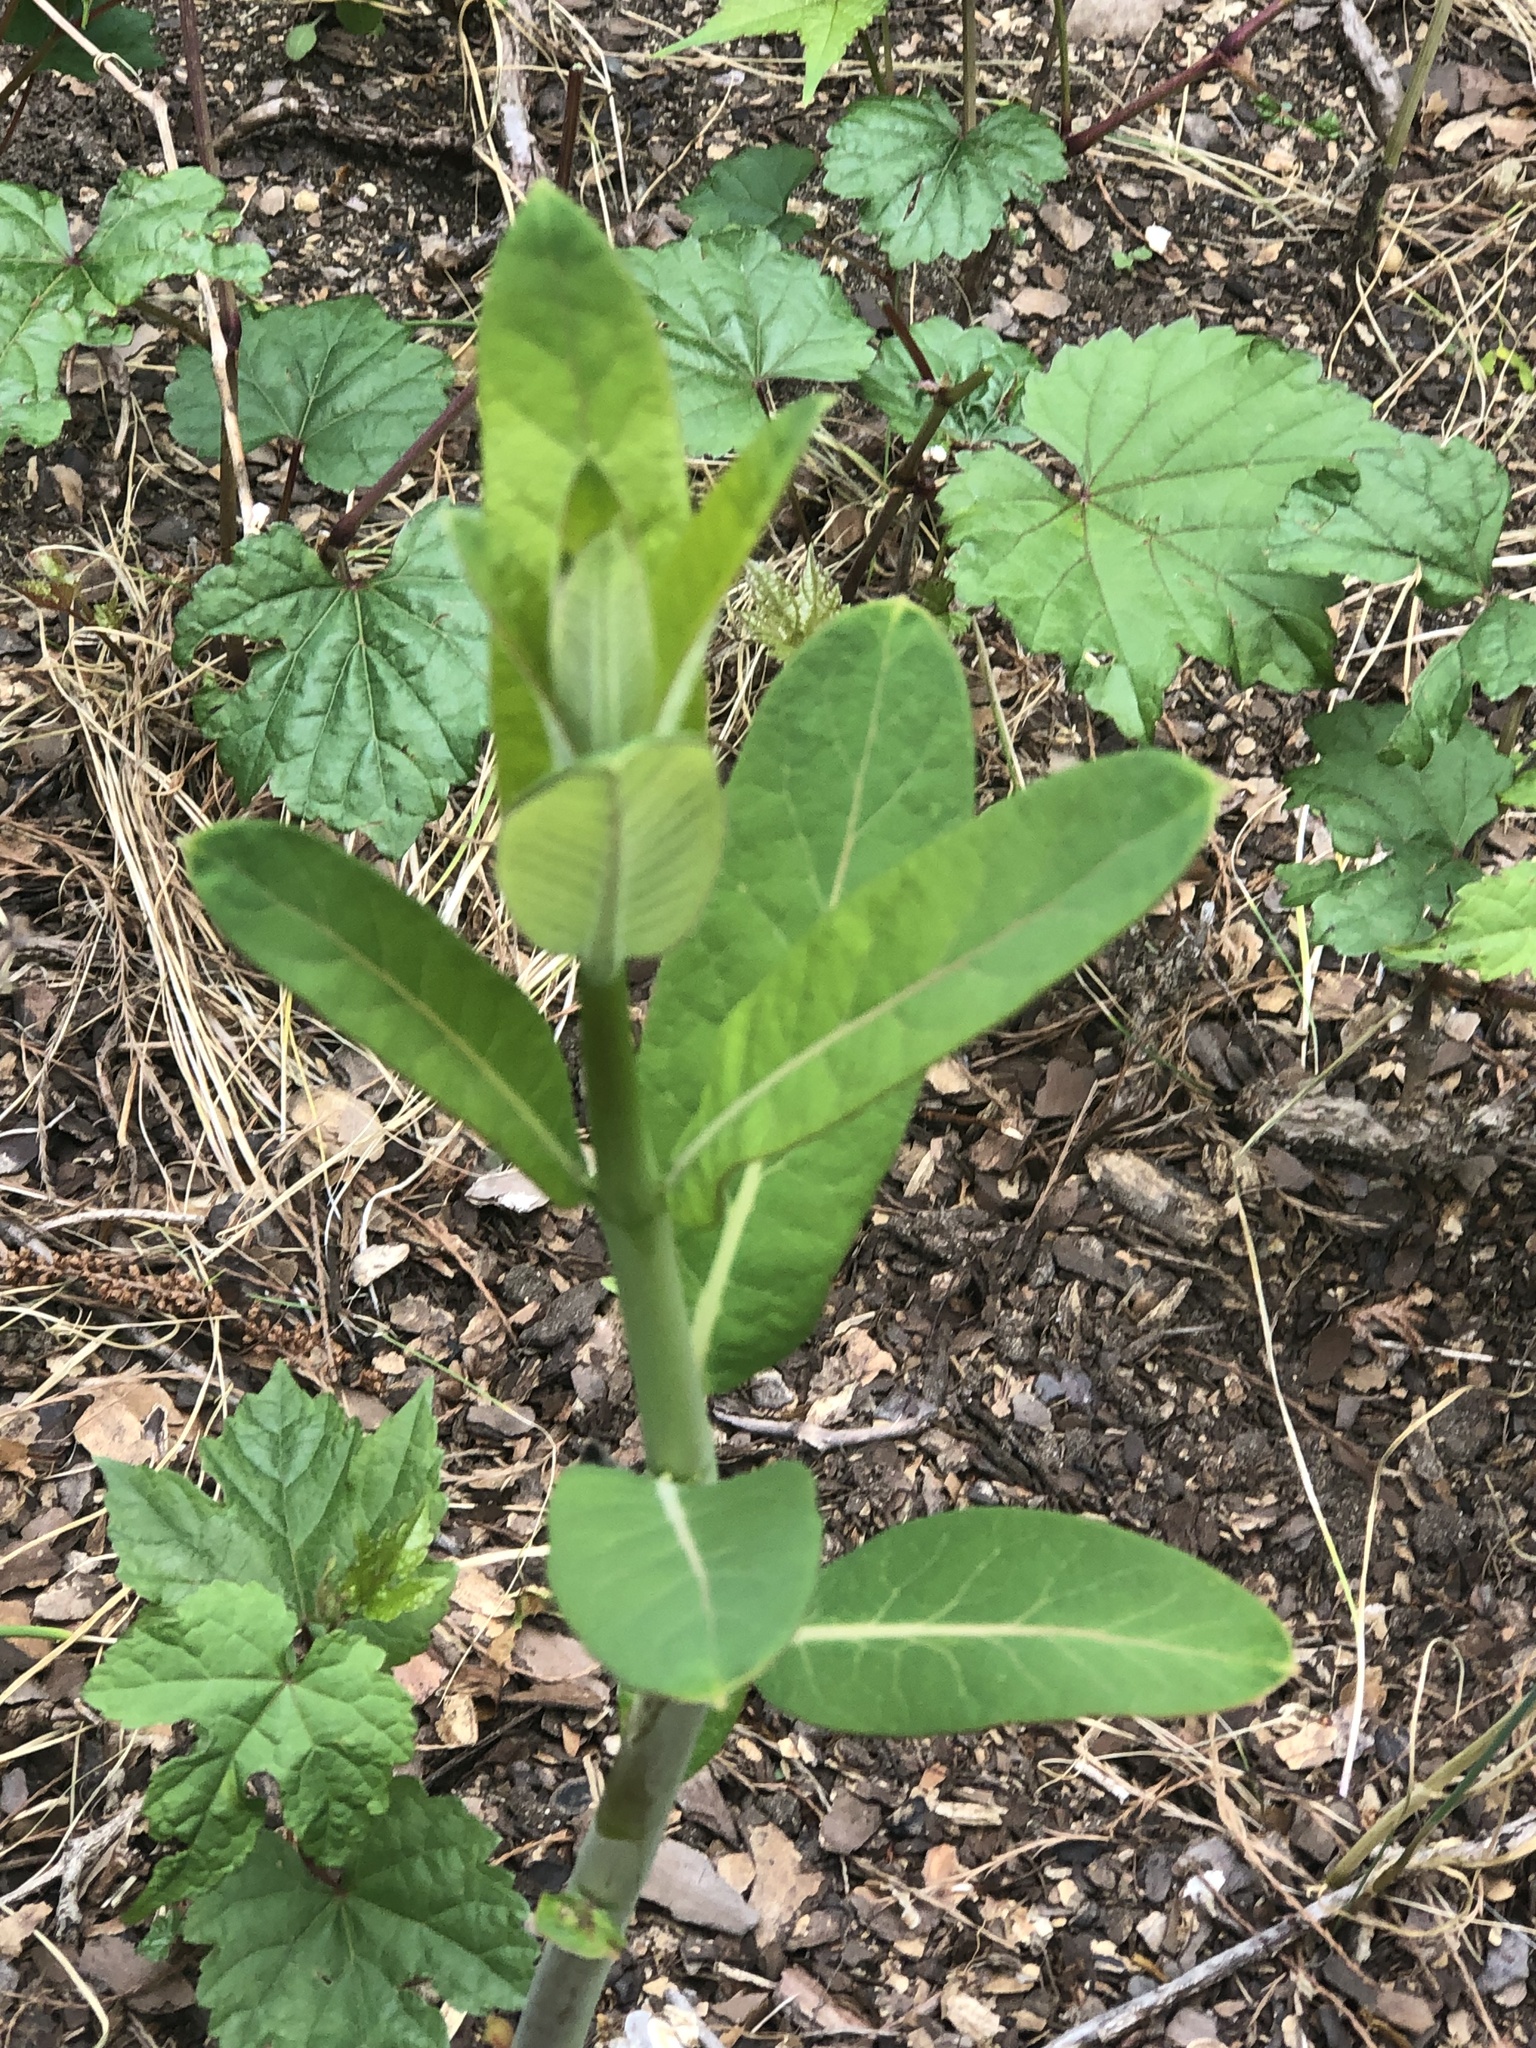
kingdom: Plantae
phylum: Tracheophyta
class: Magnoliopsida
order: Gentianales
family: Apocynaceae
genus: Asclepias
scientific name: Asclepias syriaca
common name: Common milkweed
